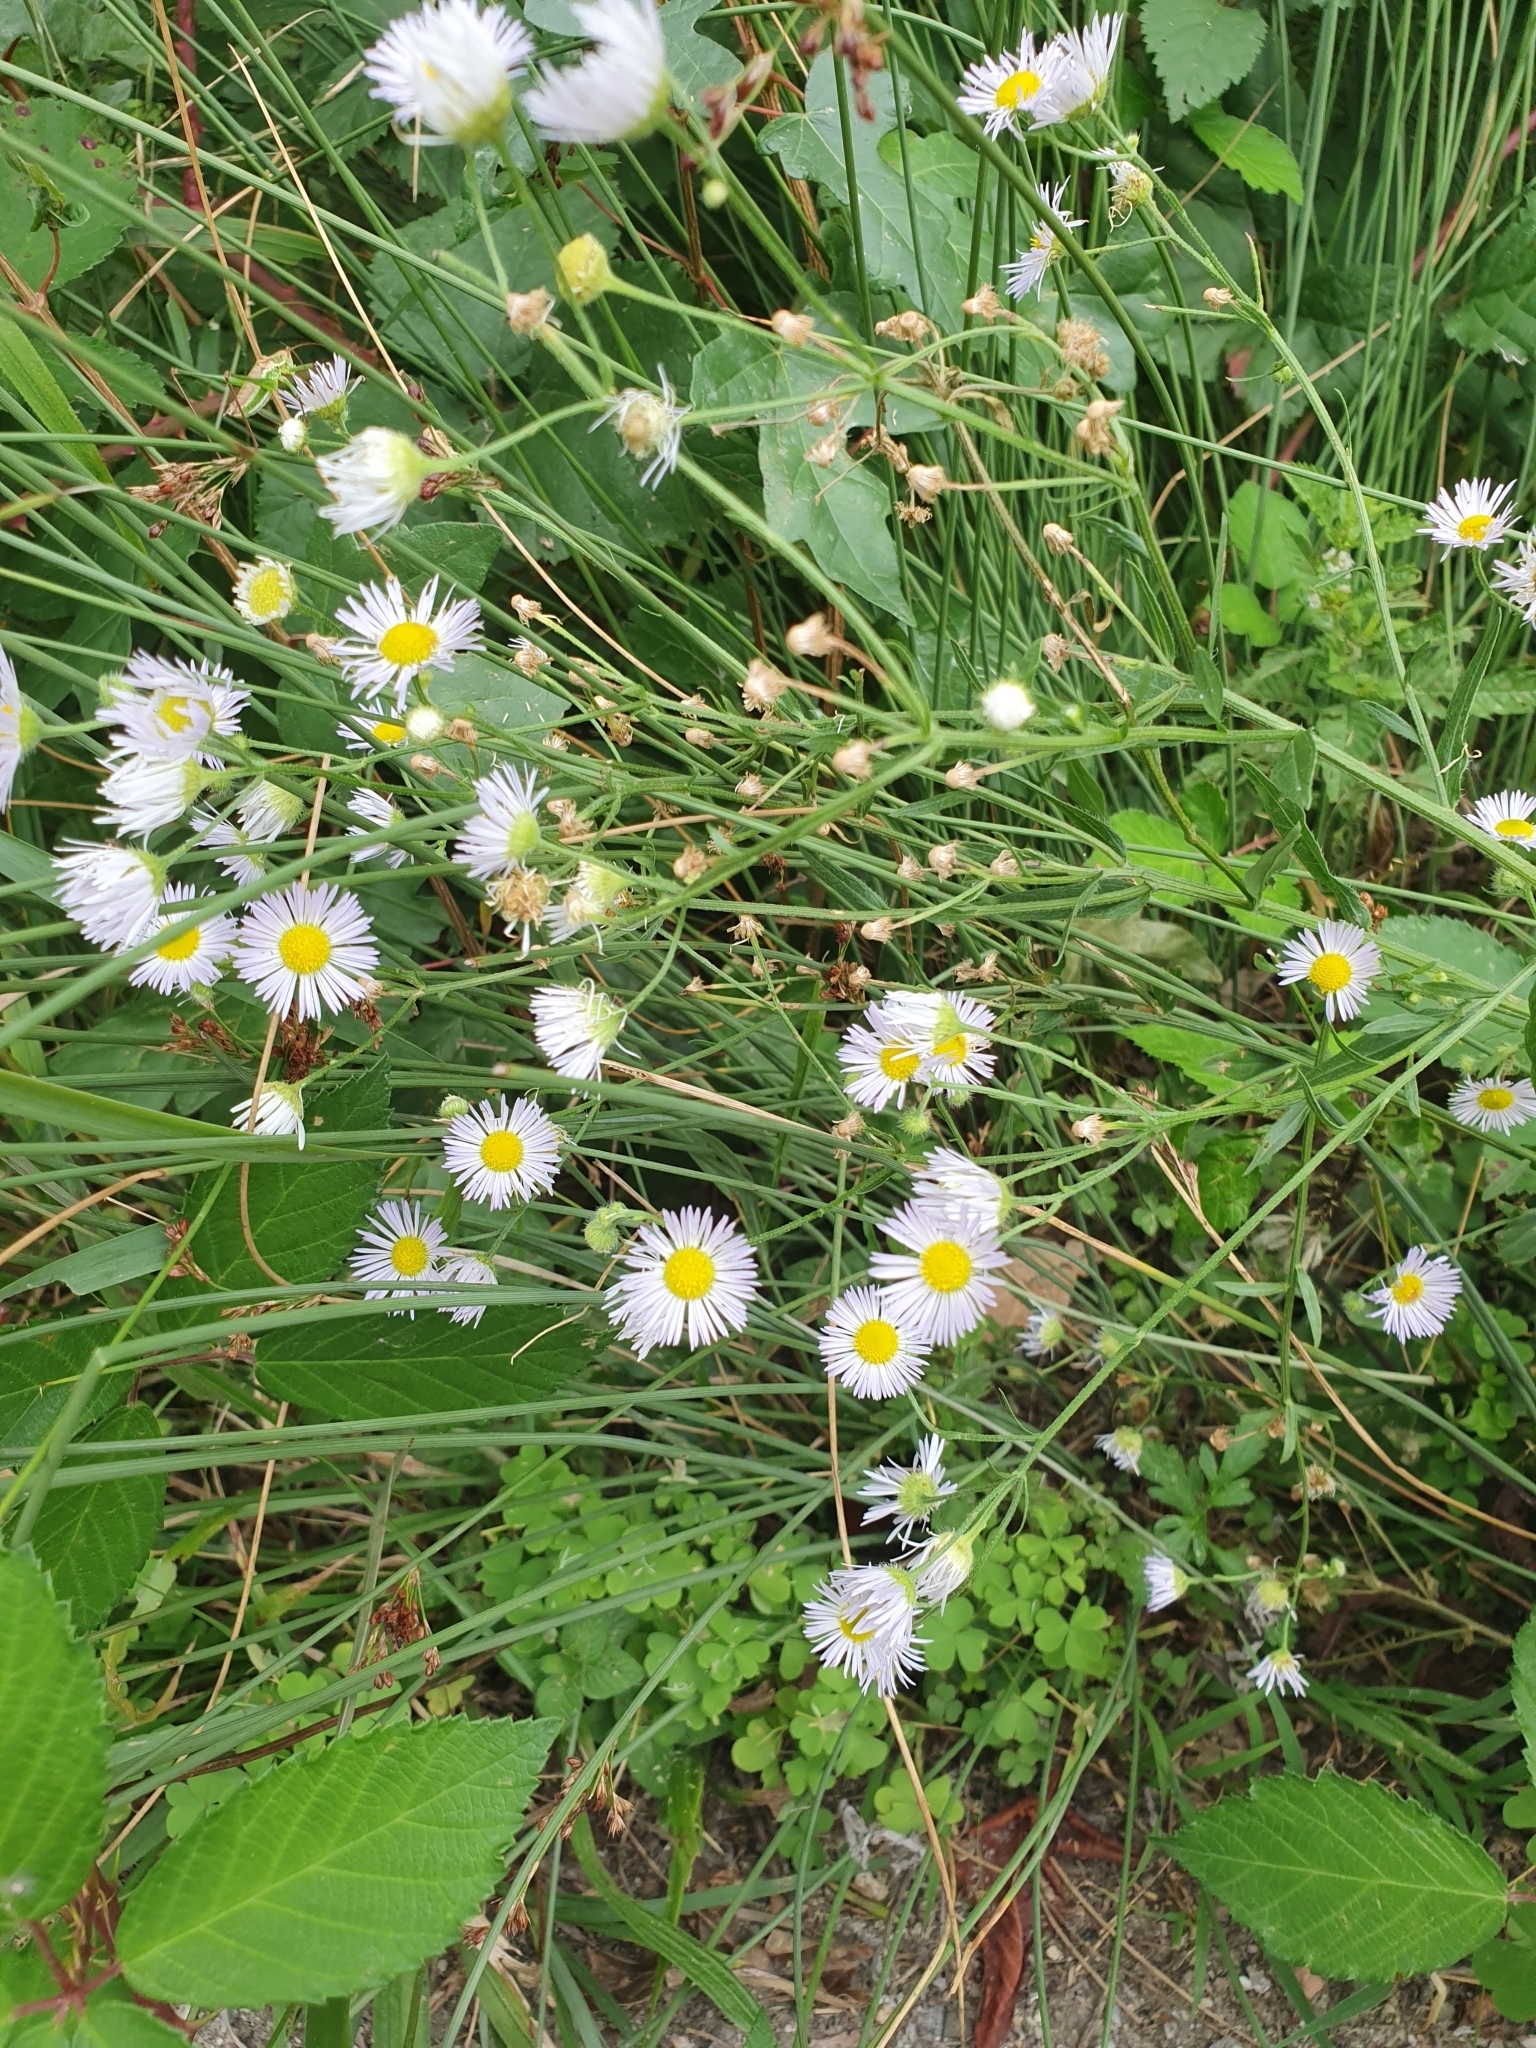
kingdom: Plantae
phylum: Tracheophyta
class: Magnoliopsida
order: Asterales
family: Asteraceae
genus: Erigeron
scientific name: Erigeron annuus
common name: Tall fleabane
